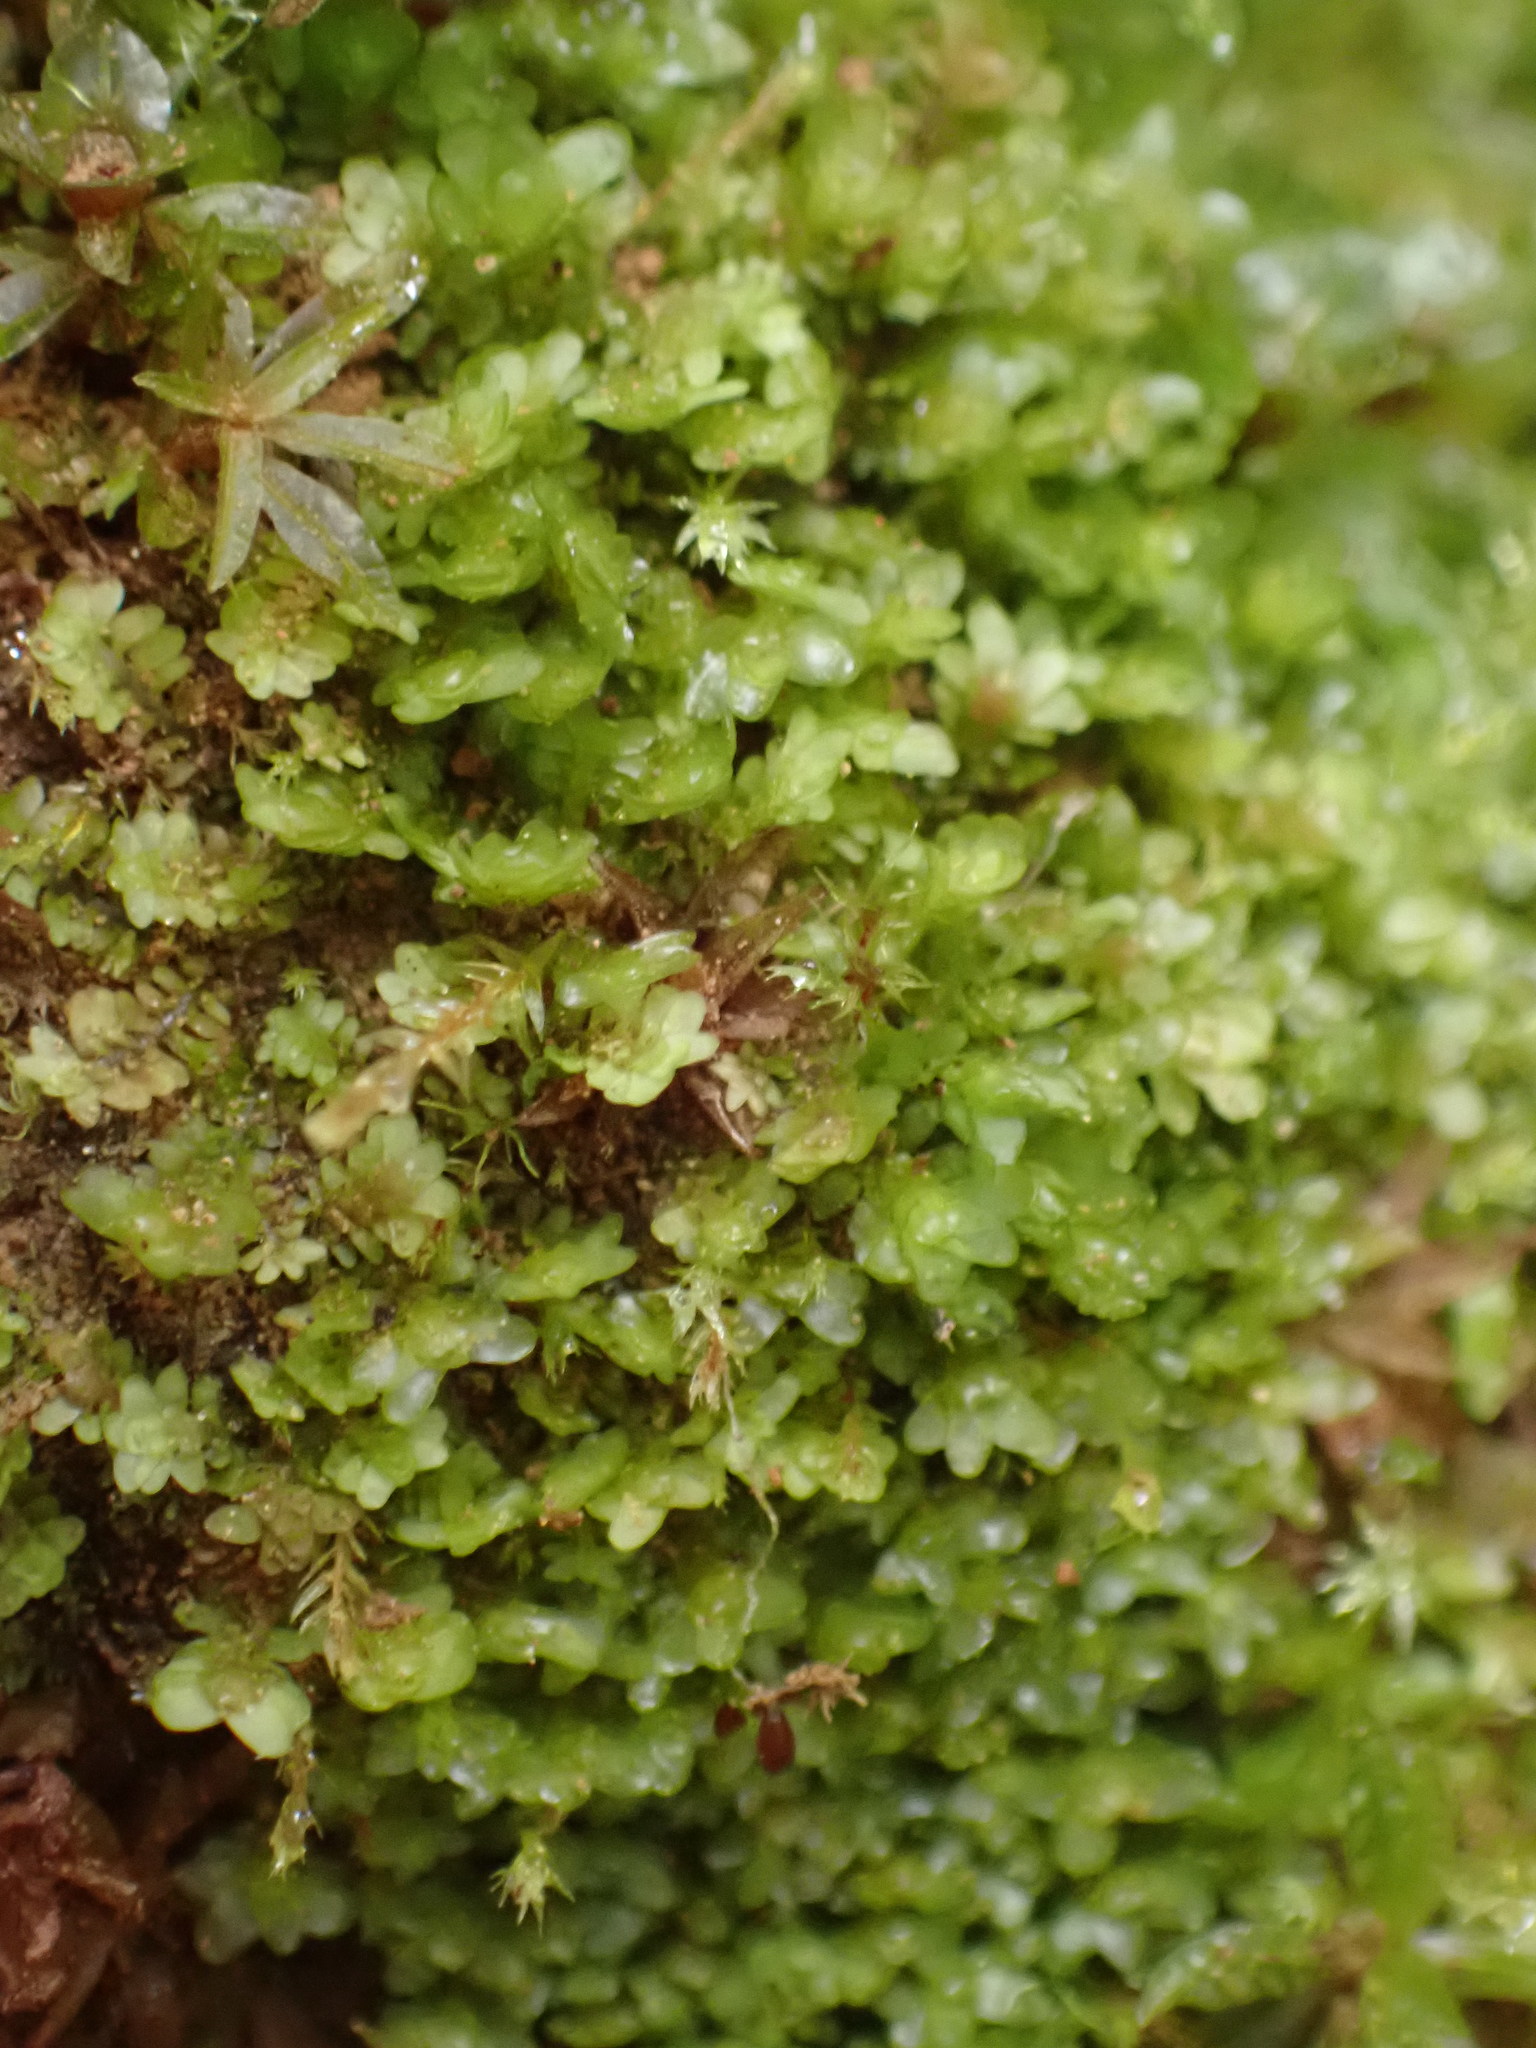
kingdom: Plantae
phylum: Marchantiophyta
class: Jungermanniopsida
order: Jungermanniales
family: Scapaniaceae
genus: Diplophyllum
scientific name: Diplophyllum obtusifolium
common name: Blunt-leaved earwort
